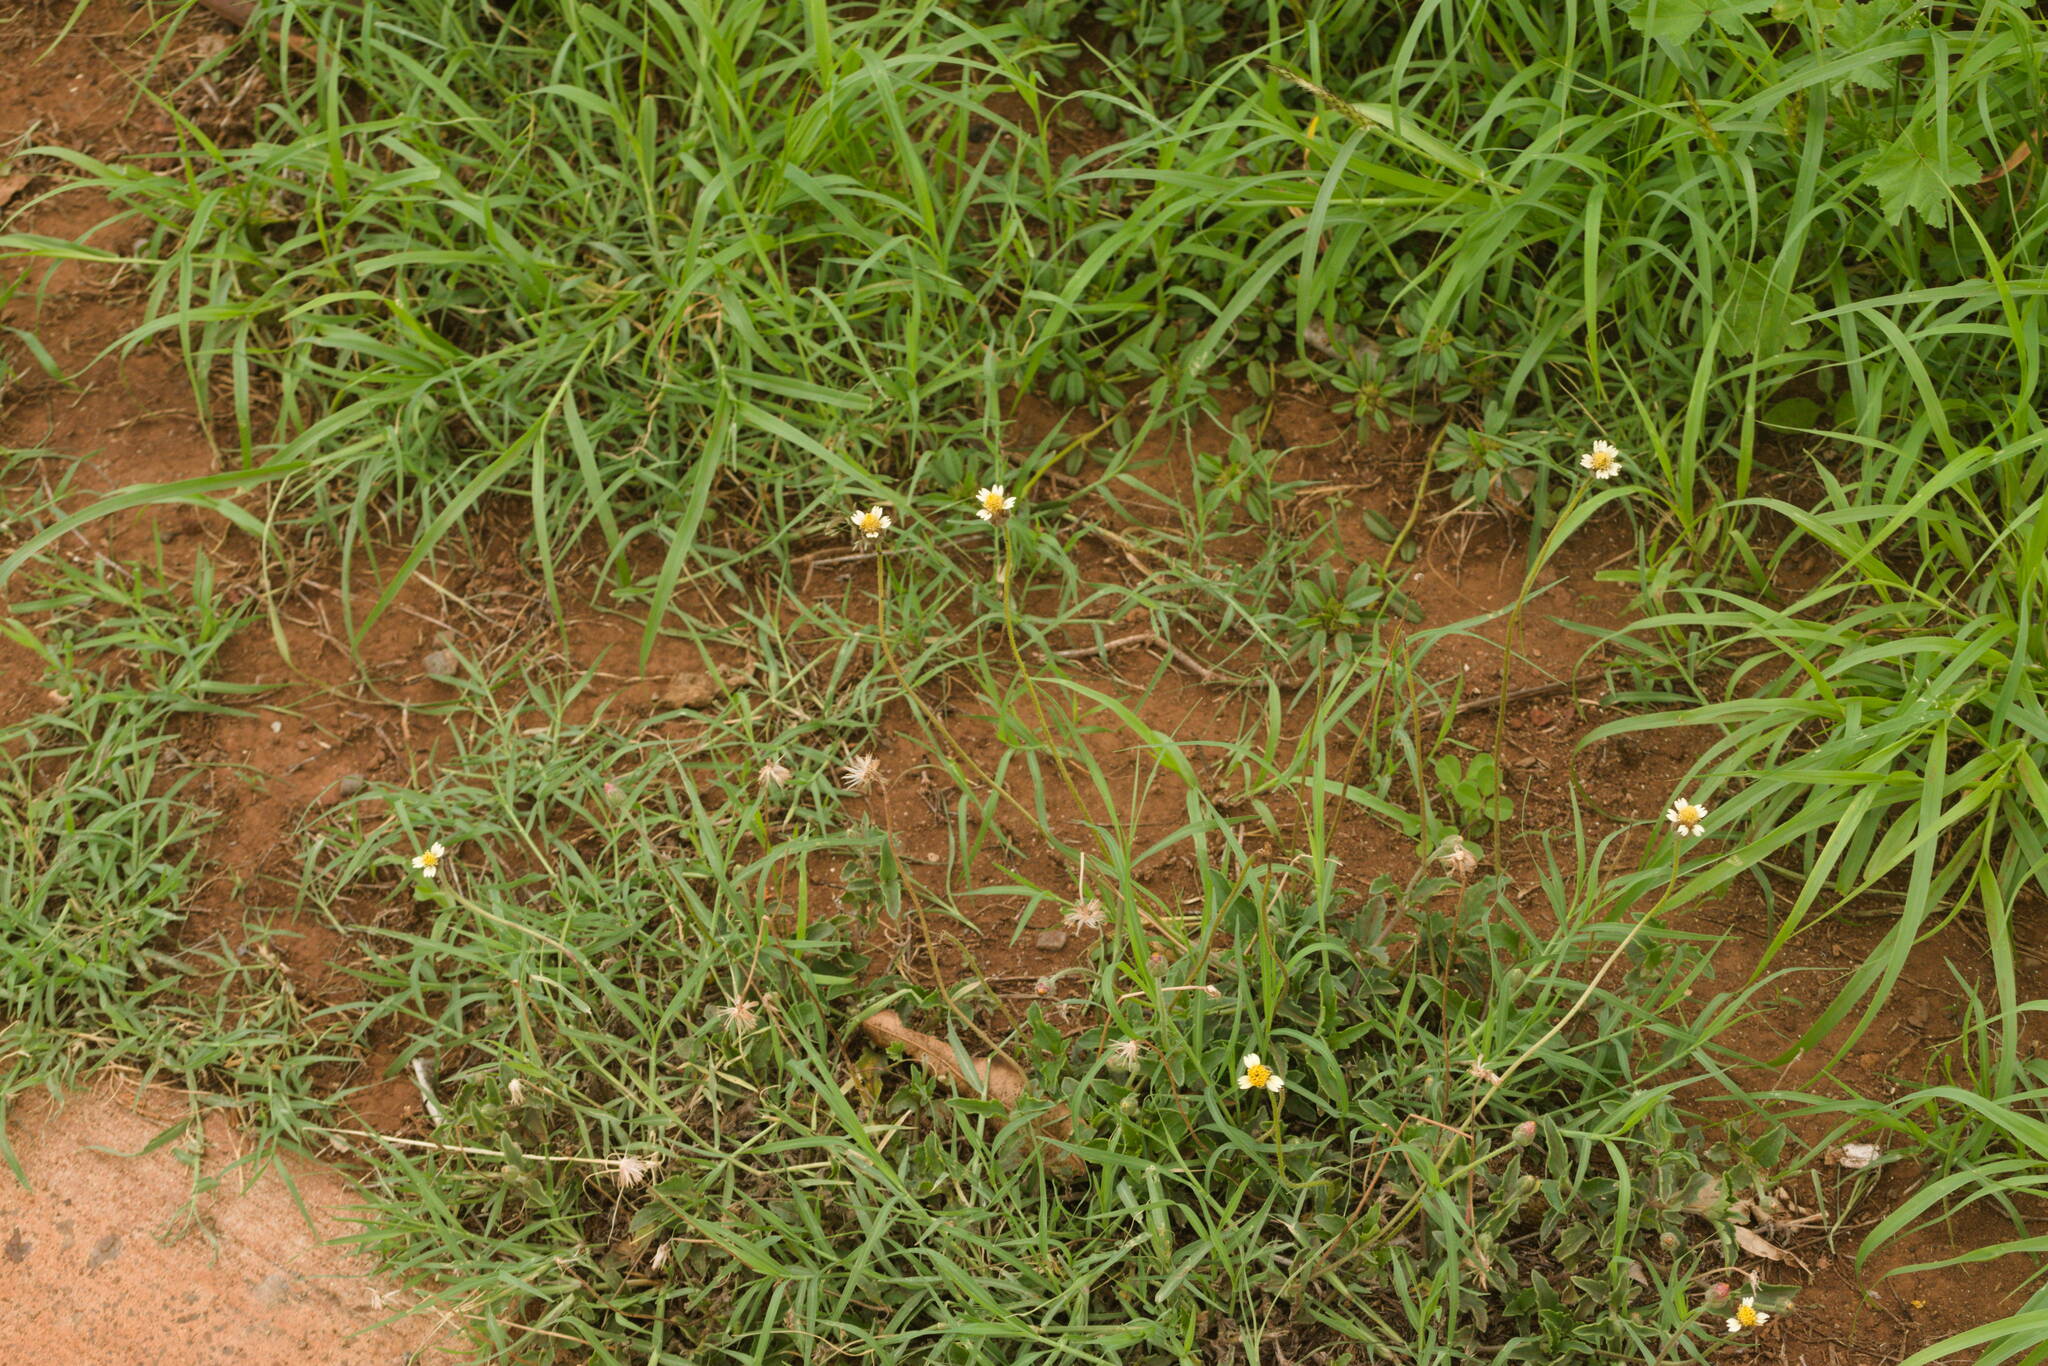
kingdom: Plantae
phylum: Tracheophyta
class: Magnoliopsida
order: Asterales
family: Asteraceae
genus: Tridax
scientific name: Tridax procumbens
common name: Coatbuttons
